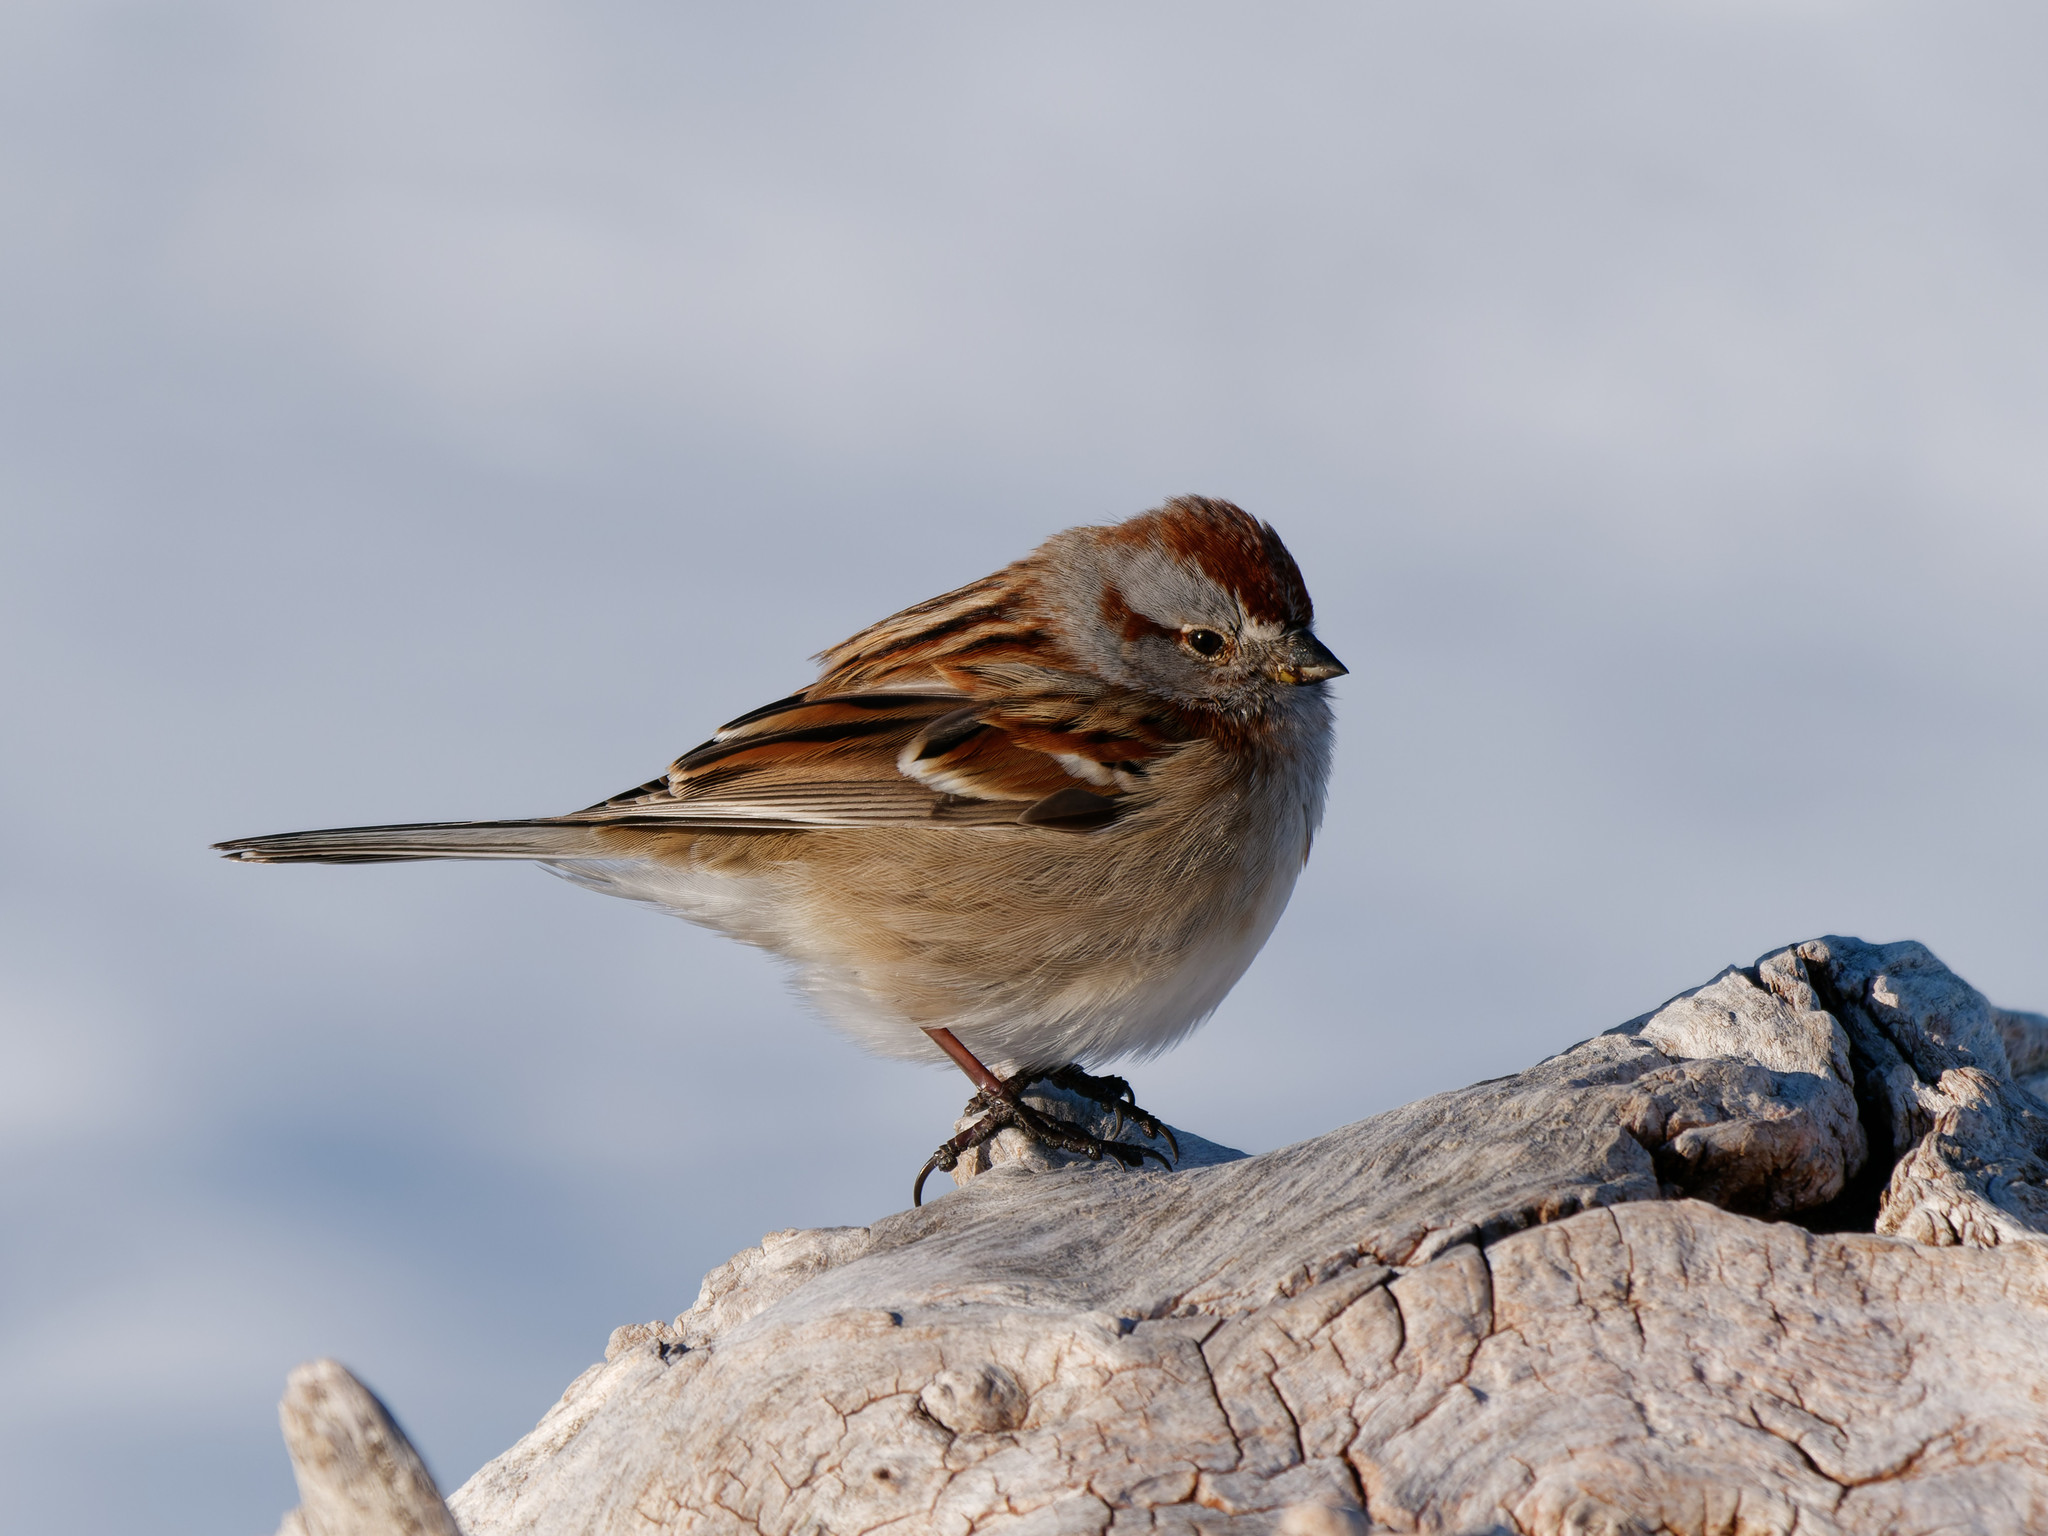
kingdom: Animalia
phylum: Chordata
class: Aves
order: Passeriformes
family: Passerellidae
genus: Spizelloides
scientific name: Spizelloides arborea
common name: American tree sparrow
